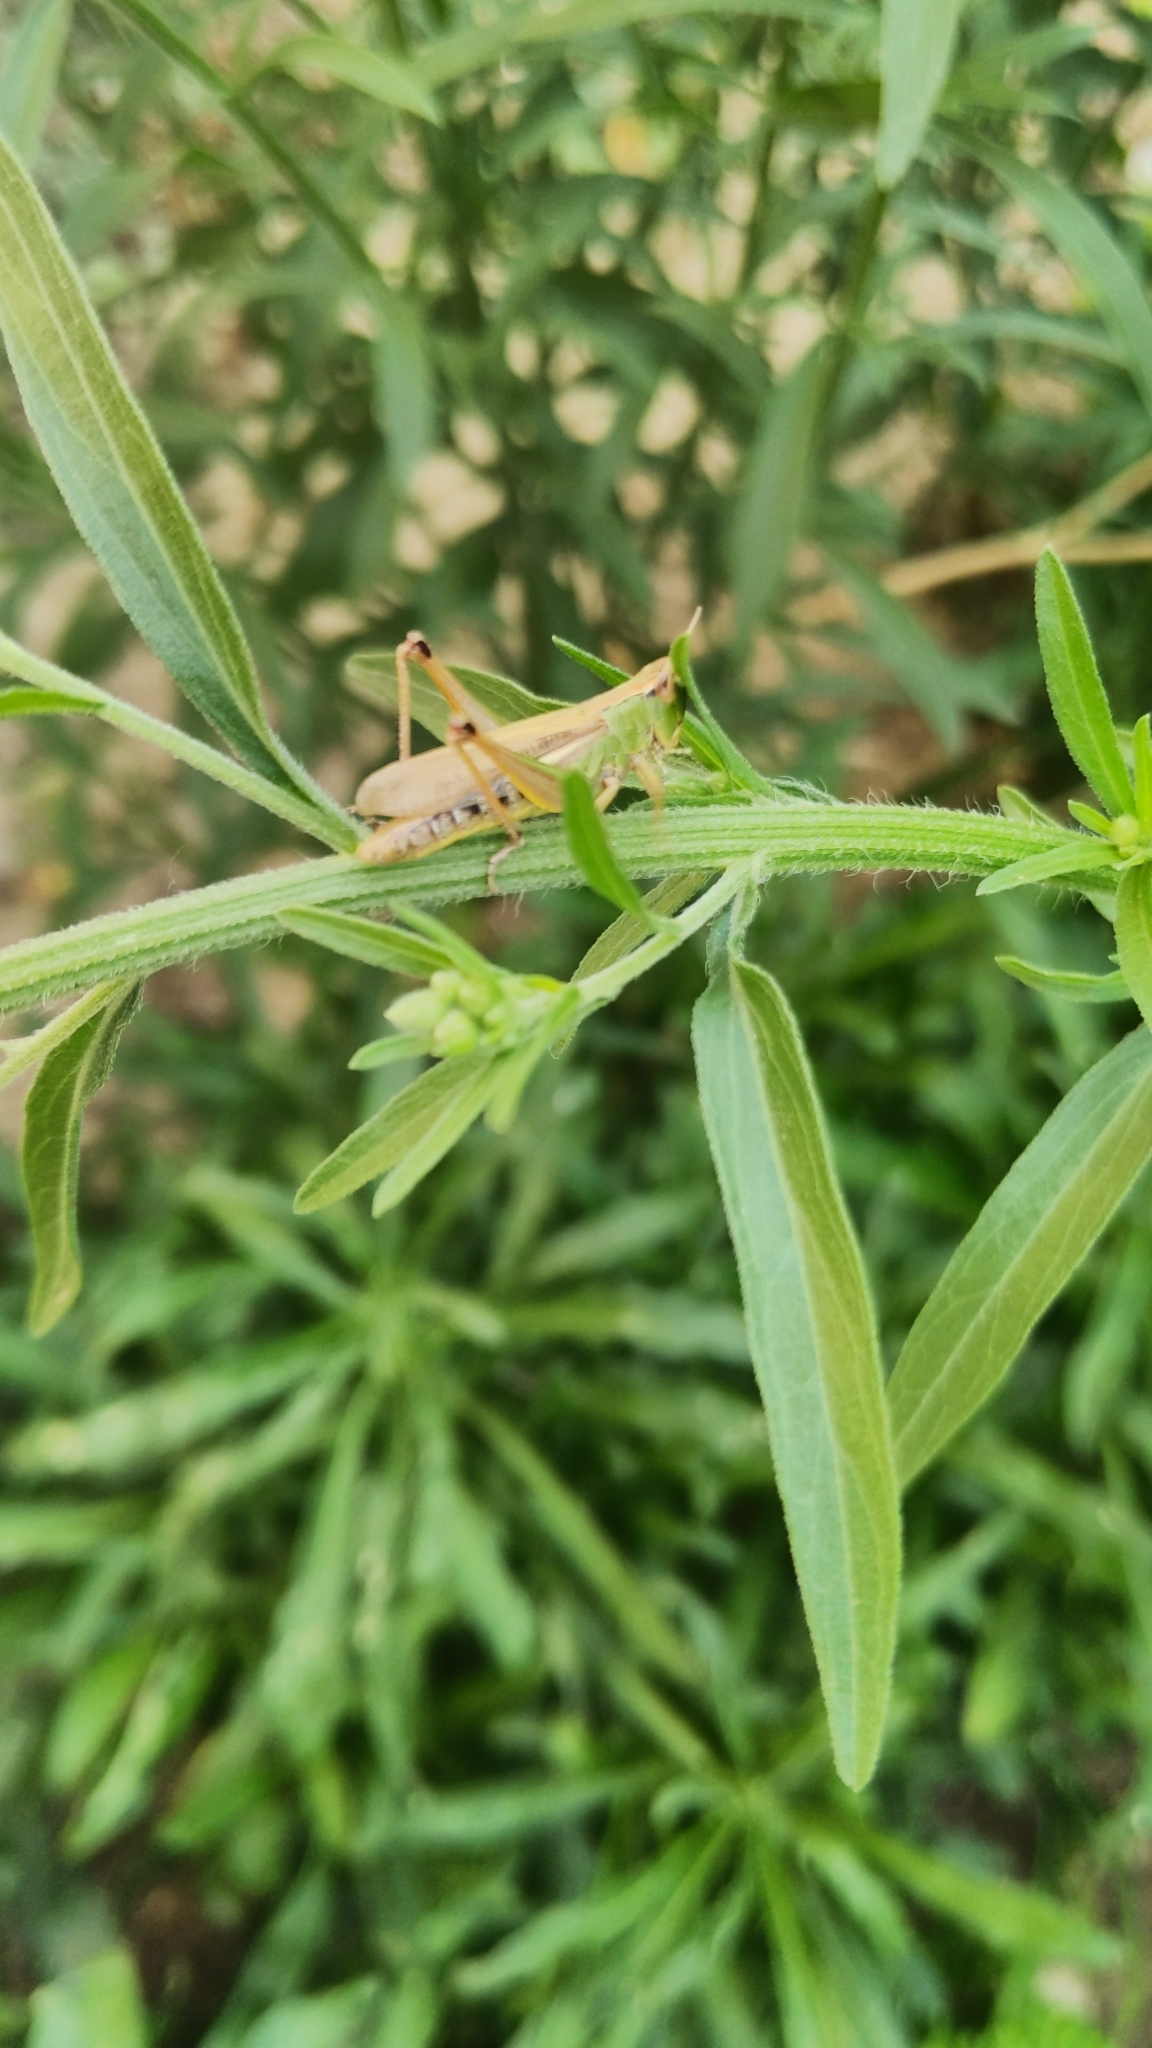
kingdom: Animalia
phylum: Arthropoda
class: Insecta
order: Orthoptera
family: Acrididae
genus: Pseudochorthippus
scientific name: Pseudochorthippus parallelus
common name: Meadow grasshopper
